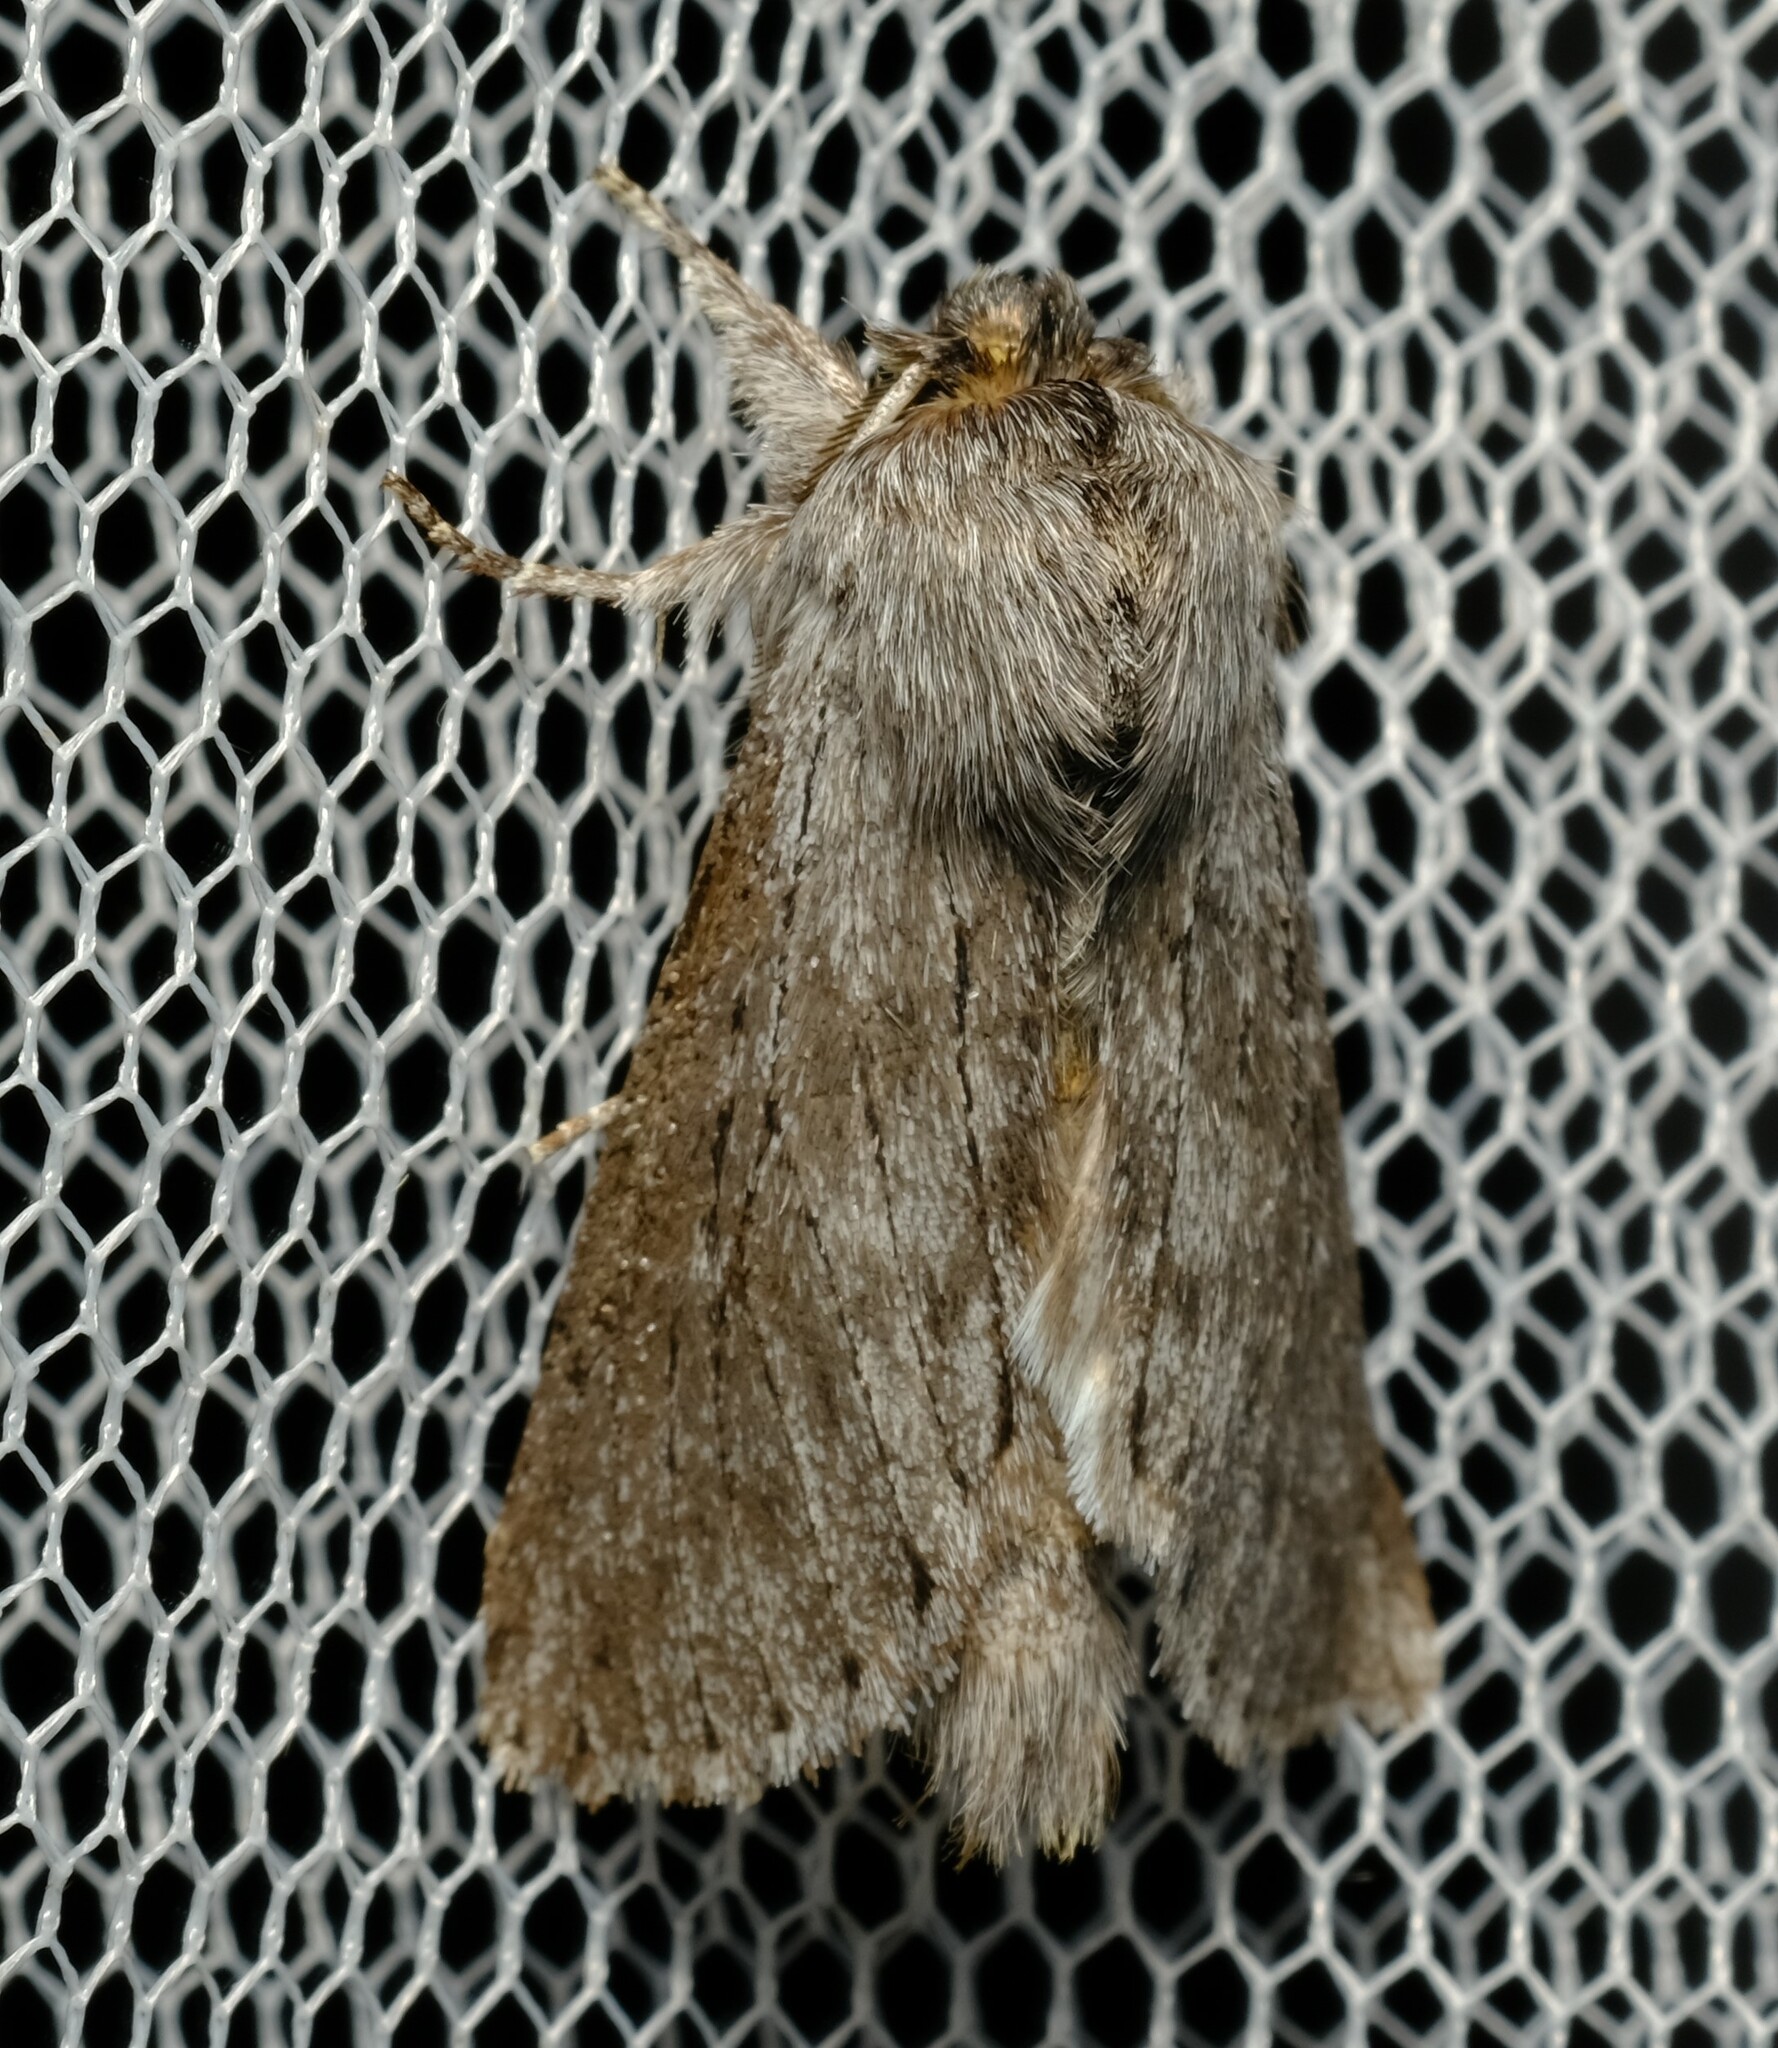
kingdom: Animalia
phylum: Arthropoda
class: Insecta
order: Lepidoptera
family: Notodontidae
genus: Antimima
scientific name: Antimima cryptica
